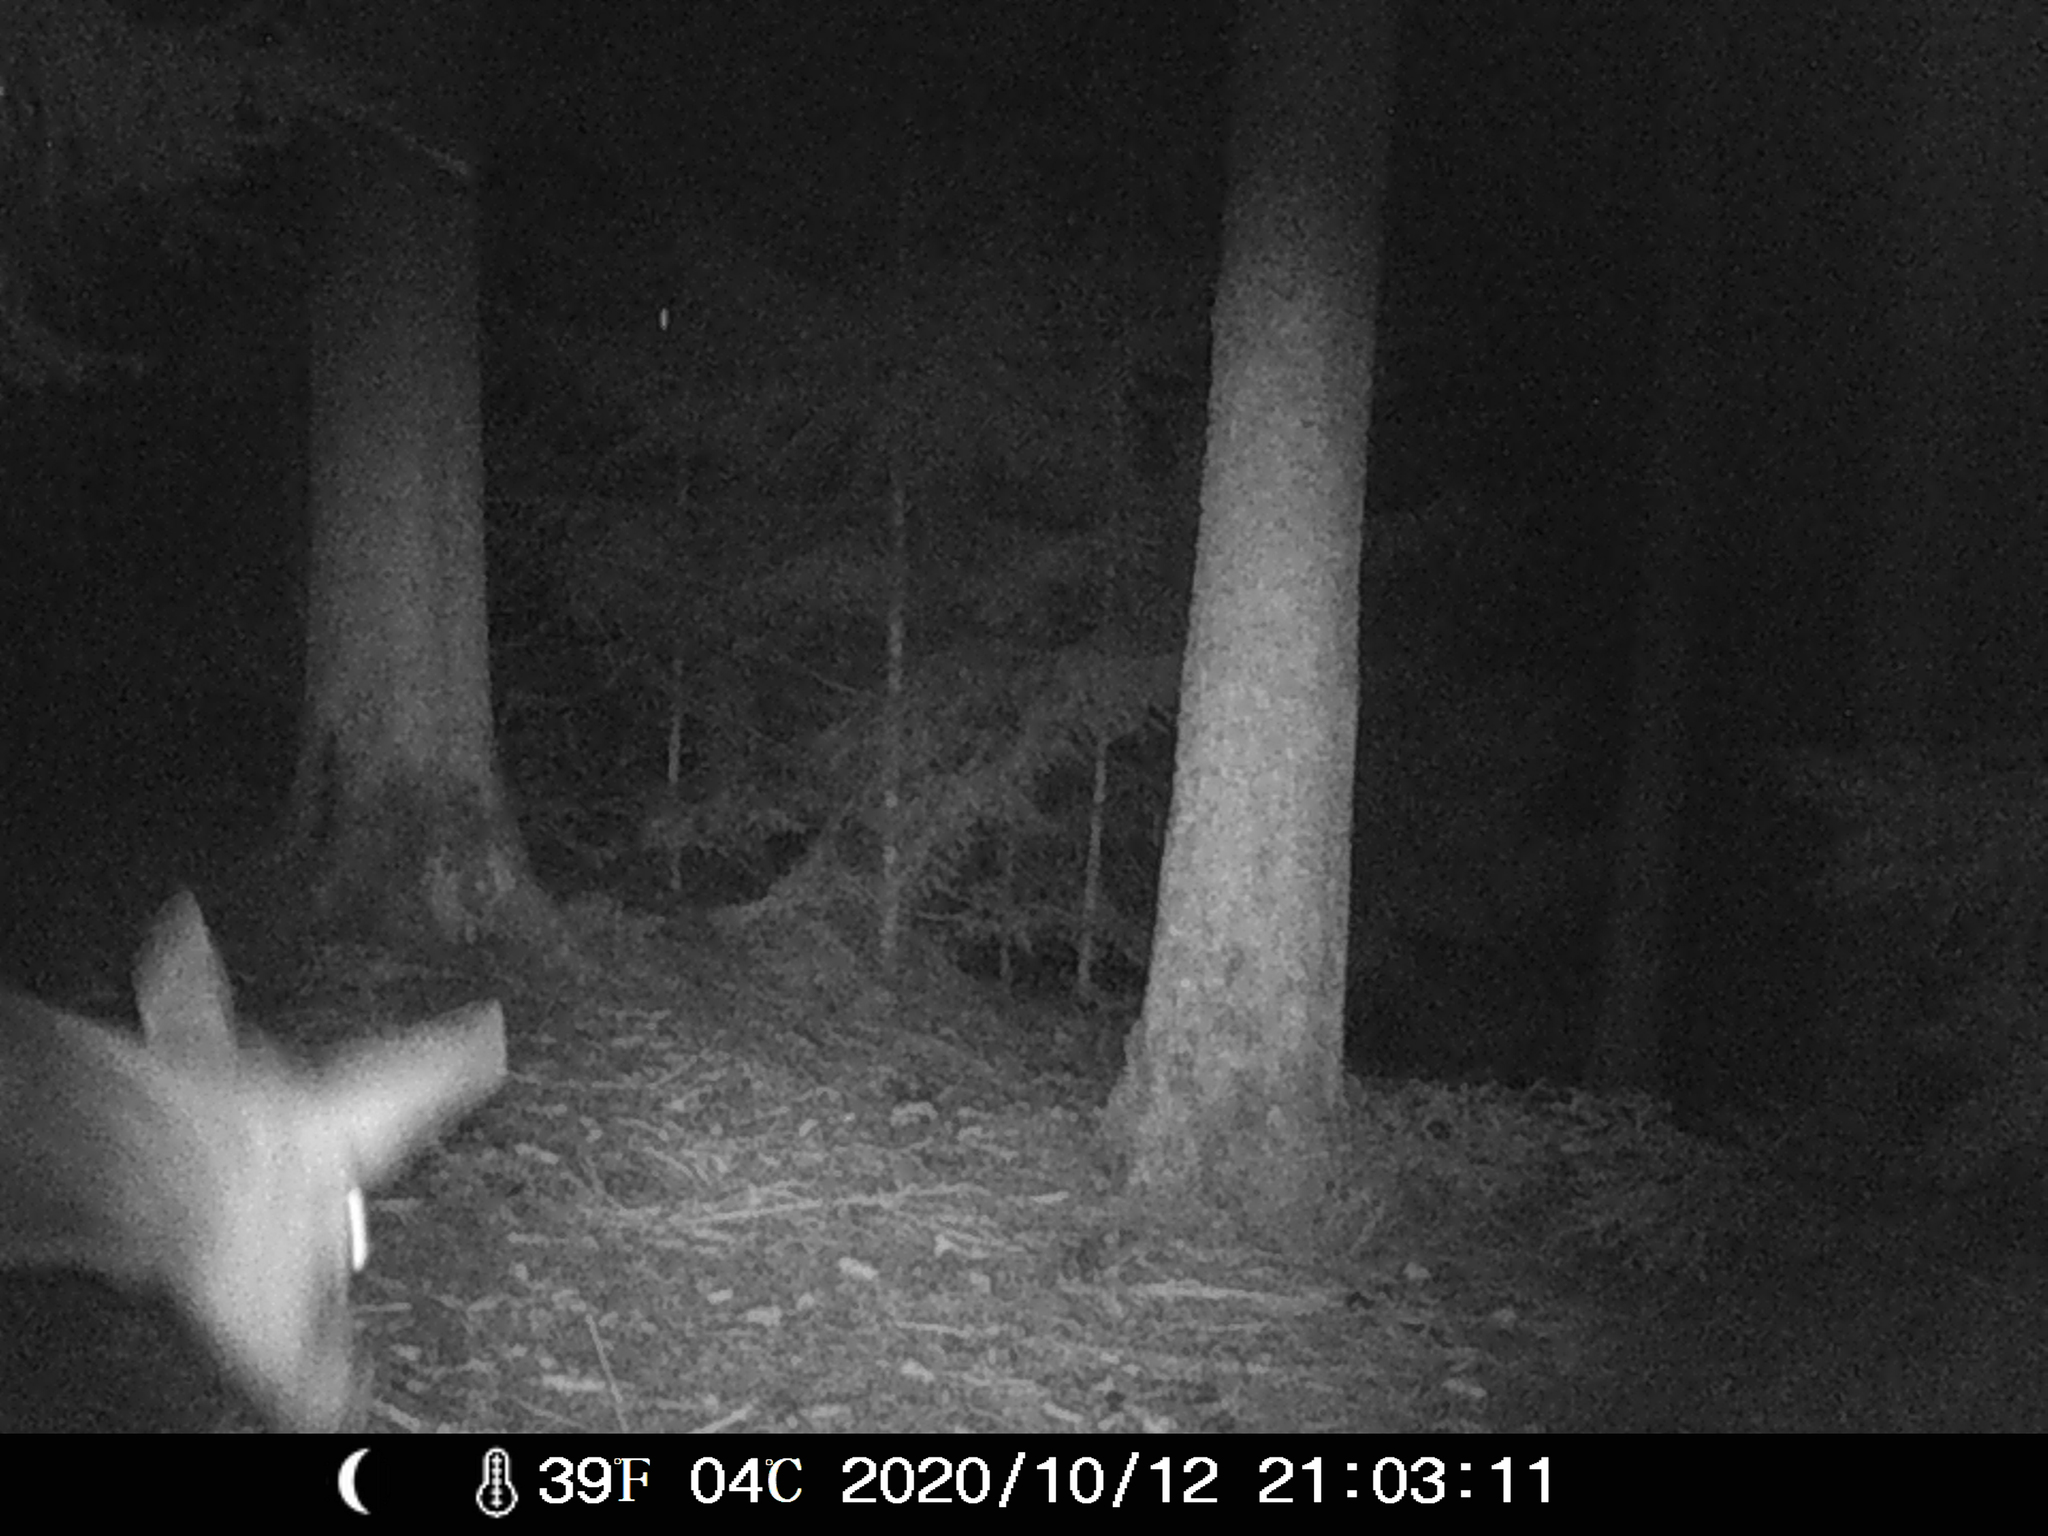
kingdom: Animalia
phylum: Chordata
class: Mammalia
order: Artiodactyla
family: Cervidae
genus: Cervus
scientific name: Cervus elaphus
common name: Red deer
